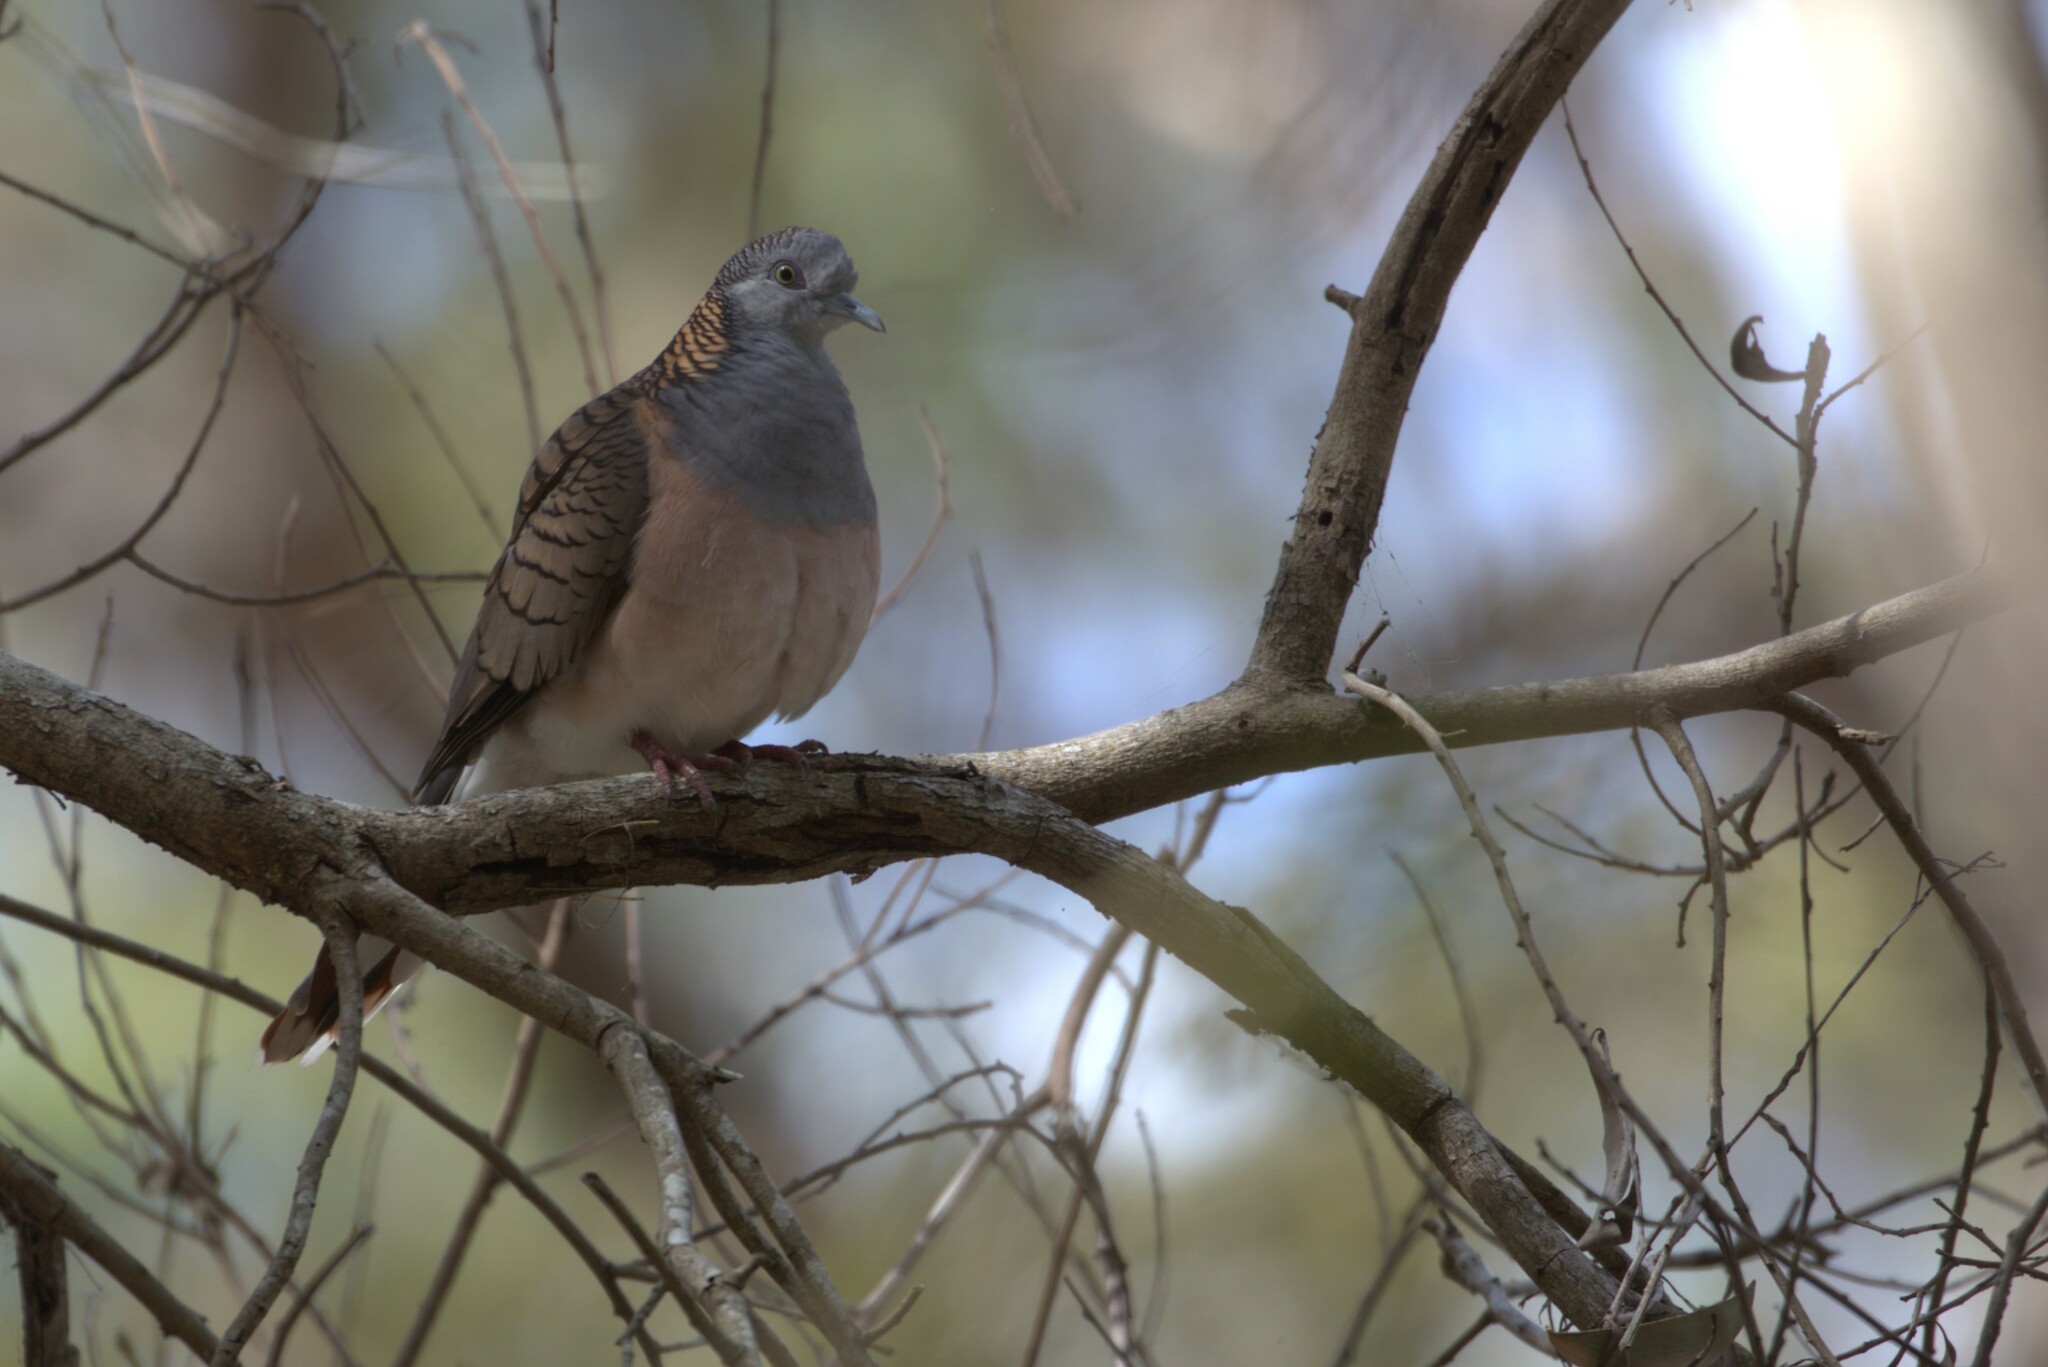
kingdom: Animalia
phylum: Chordata
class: Aves
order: Columbiformes
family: Columbidae
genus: Geopelia
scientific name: Geopelia humeralis
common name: Bar-shouldered dove
